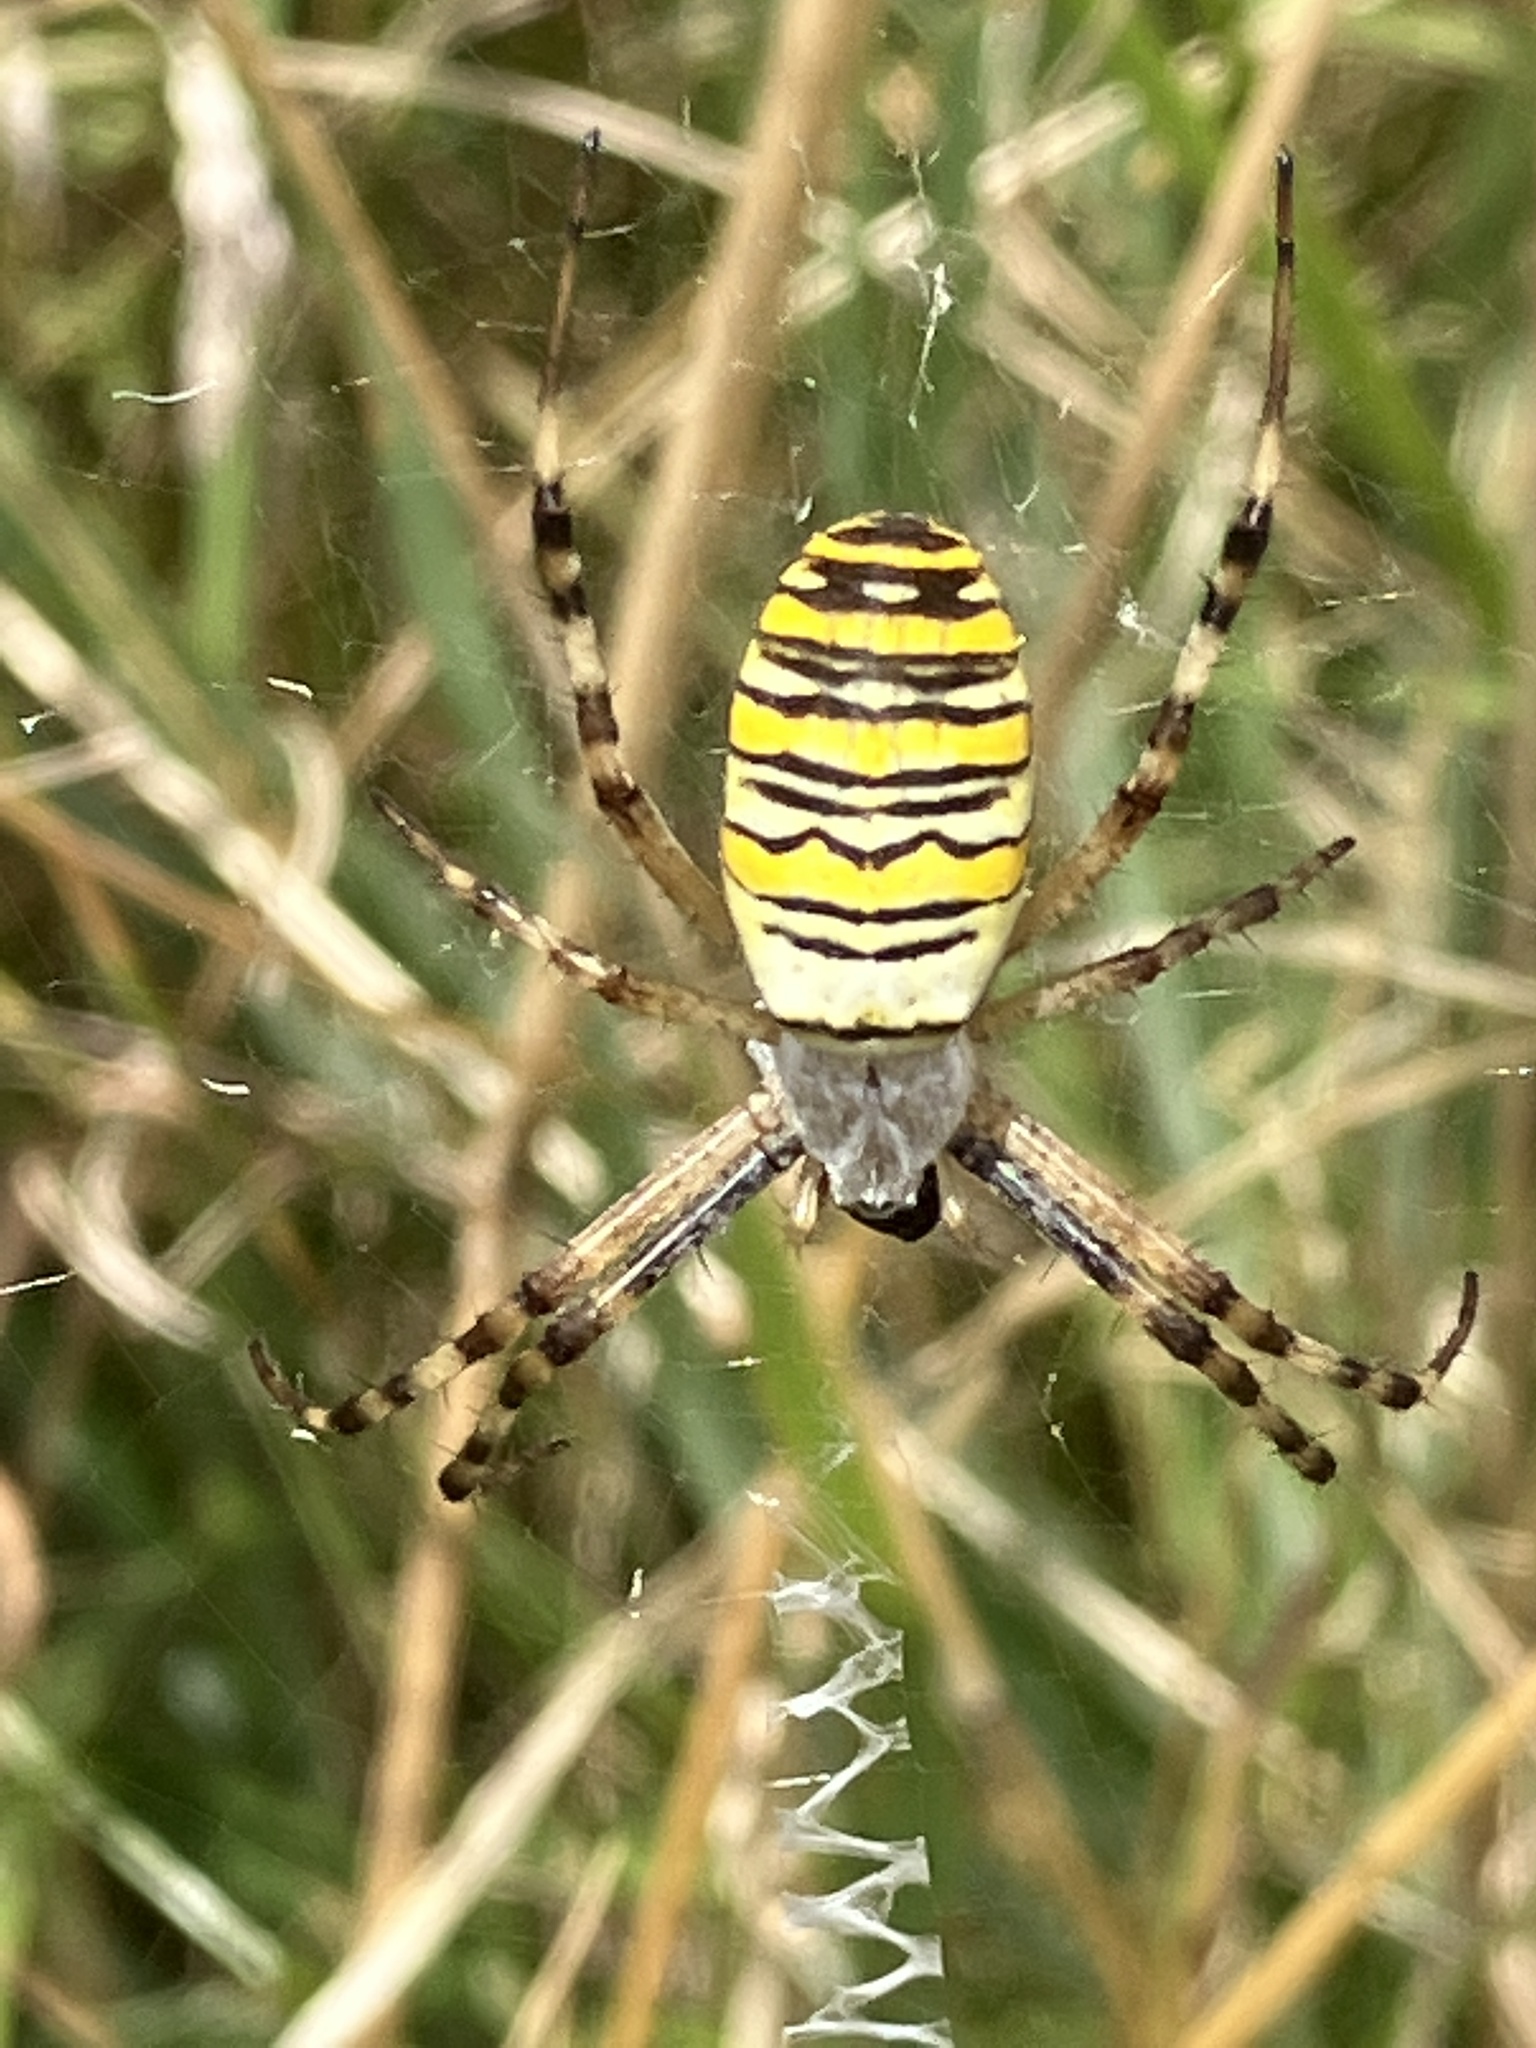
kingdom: Animalia
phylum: Arthropoda
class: Arachnida
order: Araneae
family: Araneidae
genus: Argiope
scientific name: Argiope bruennichi
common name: Wasp spider
